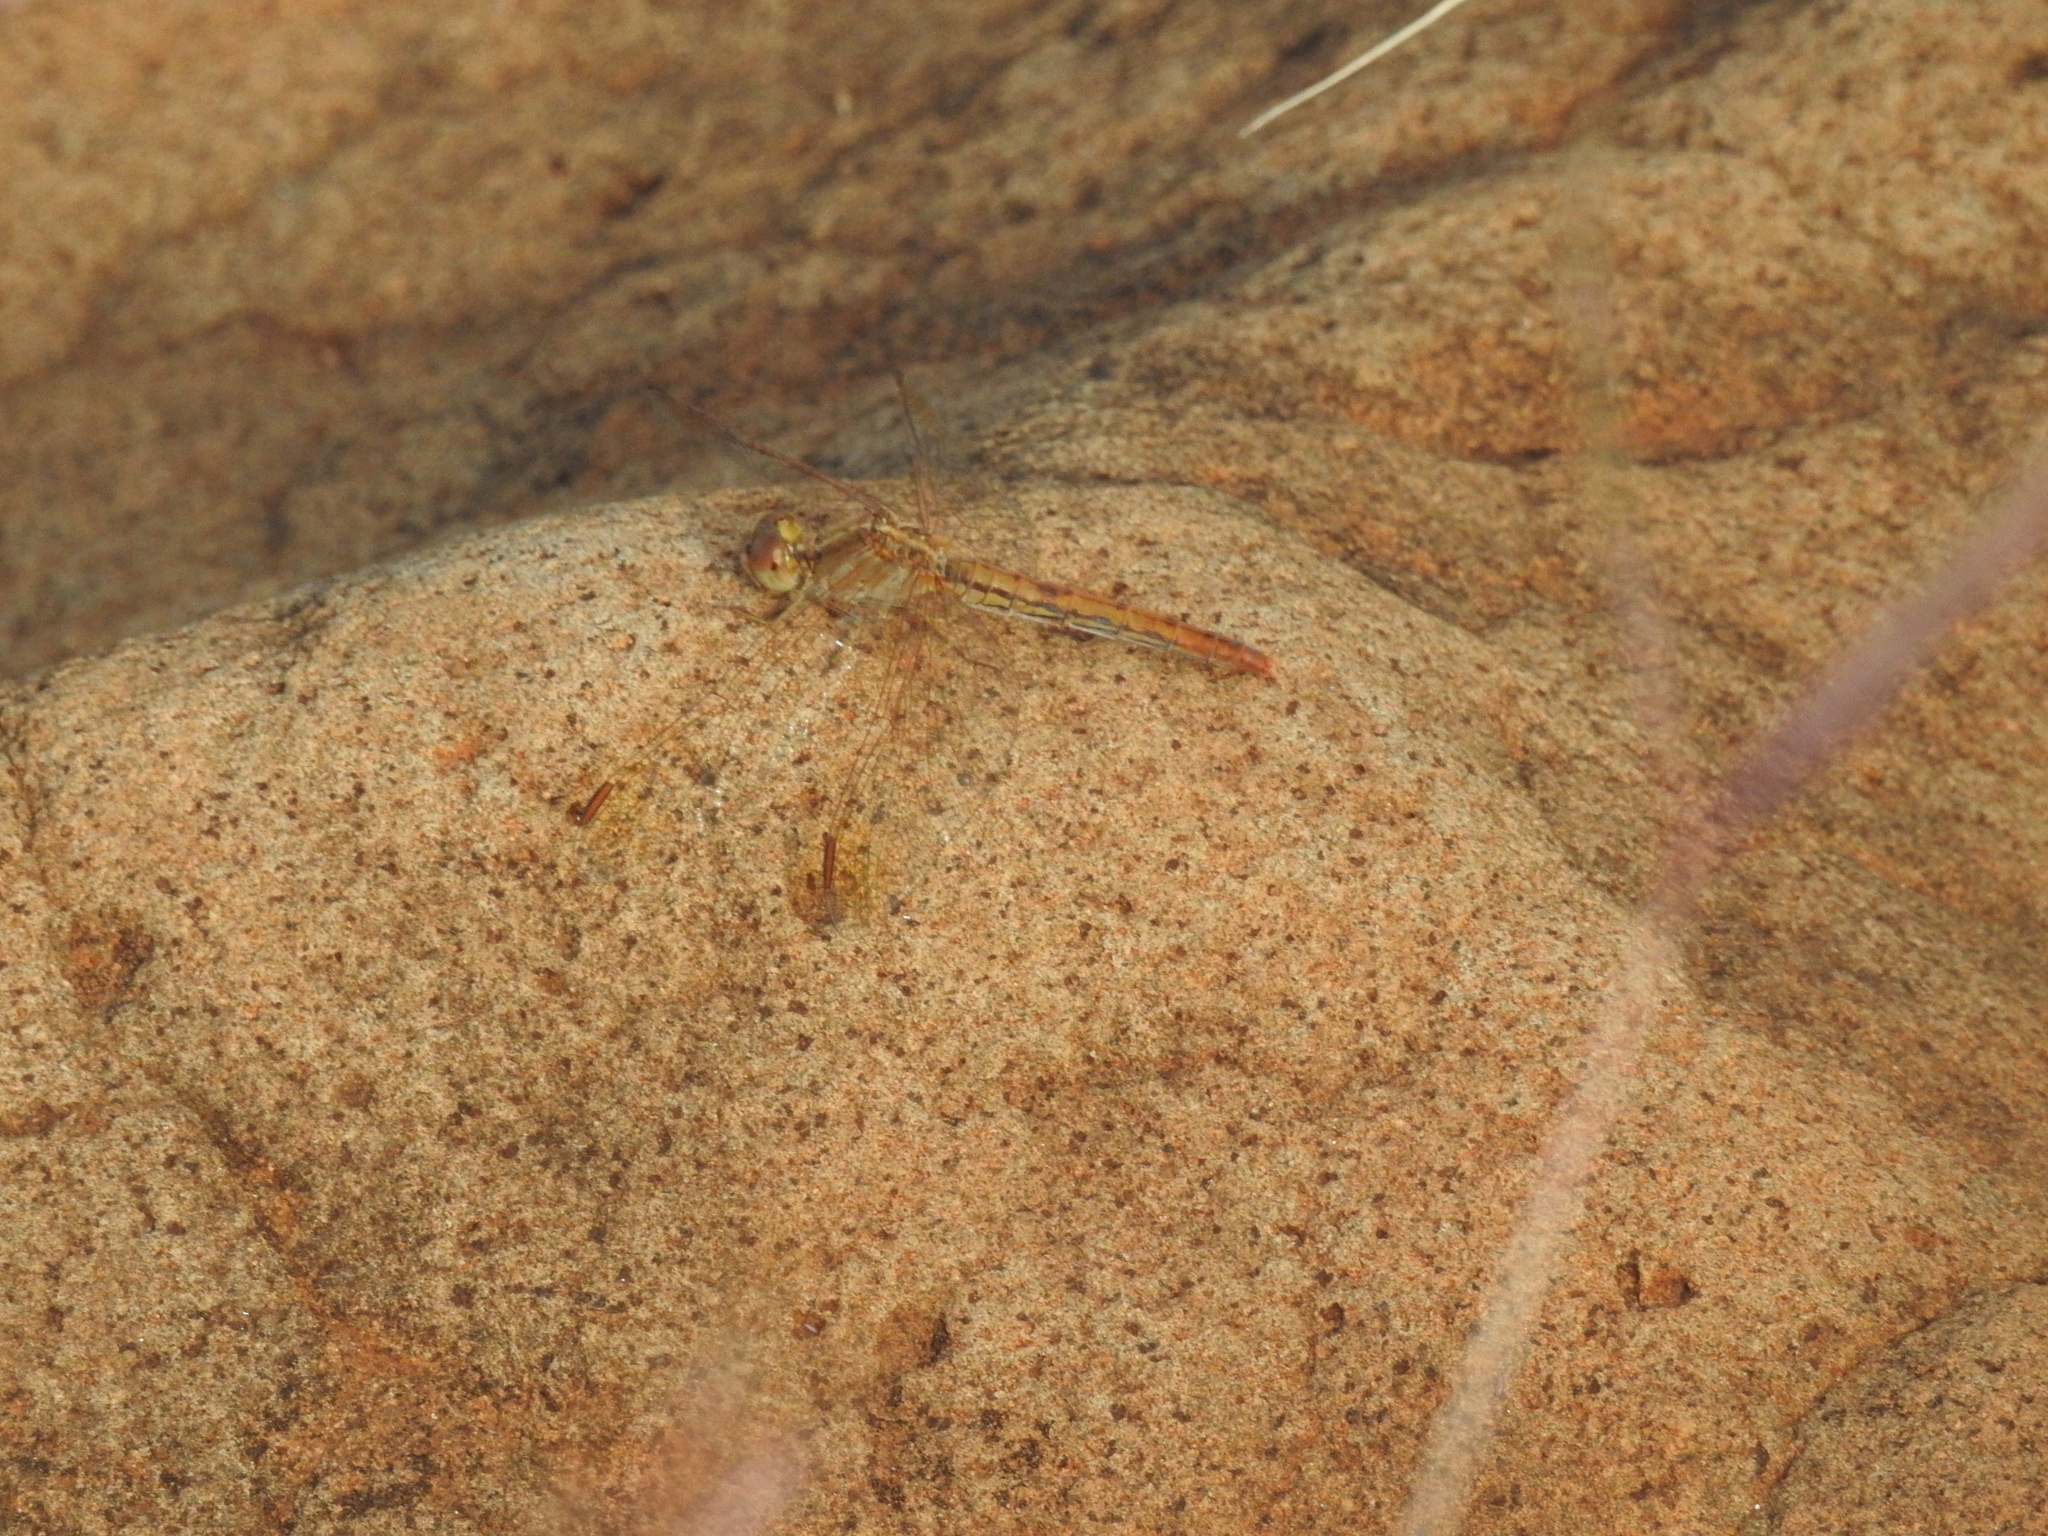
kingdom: Animalia
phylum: Arthropoda
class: Insecta
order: Odonata
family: Libellulidae
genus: Diplacodes
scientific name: Diplacodes haematodes
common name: Scarlet percher
